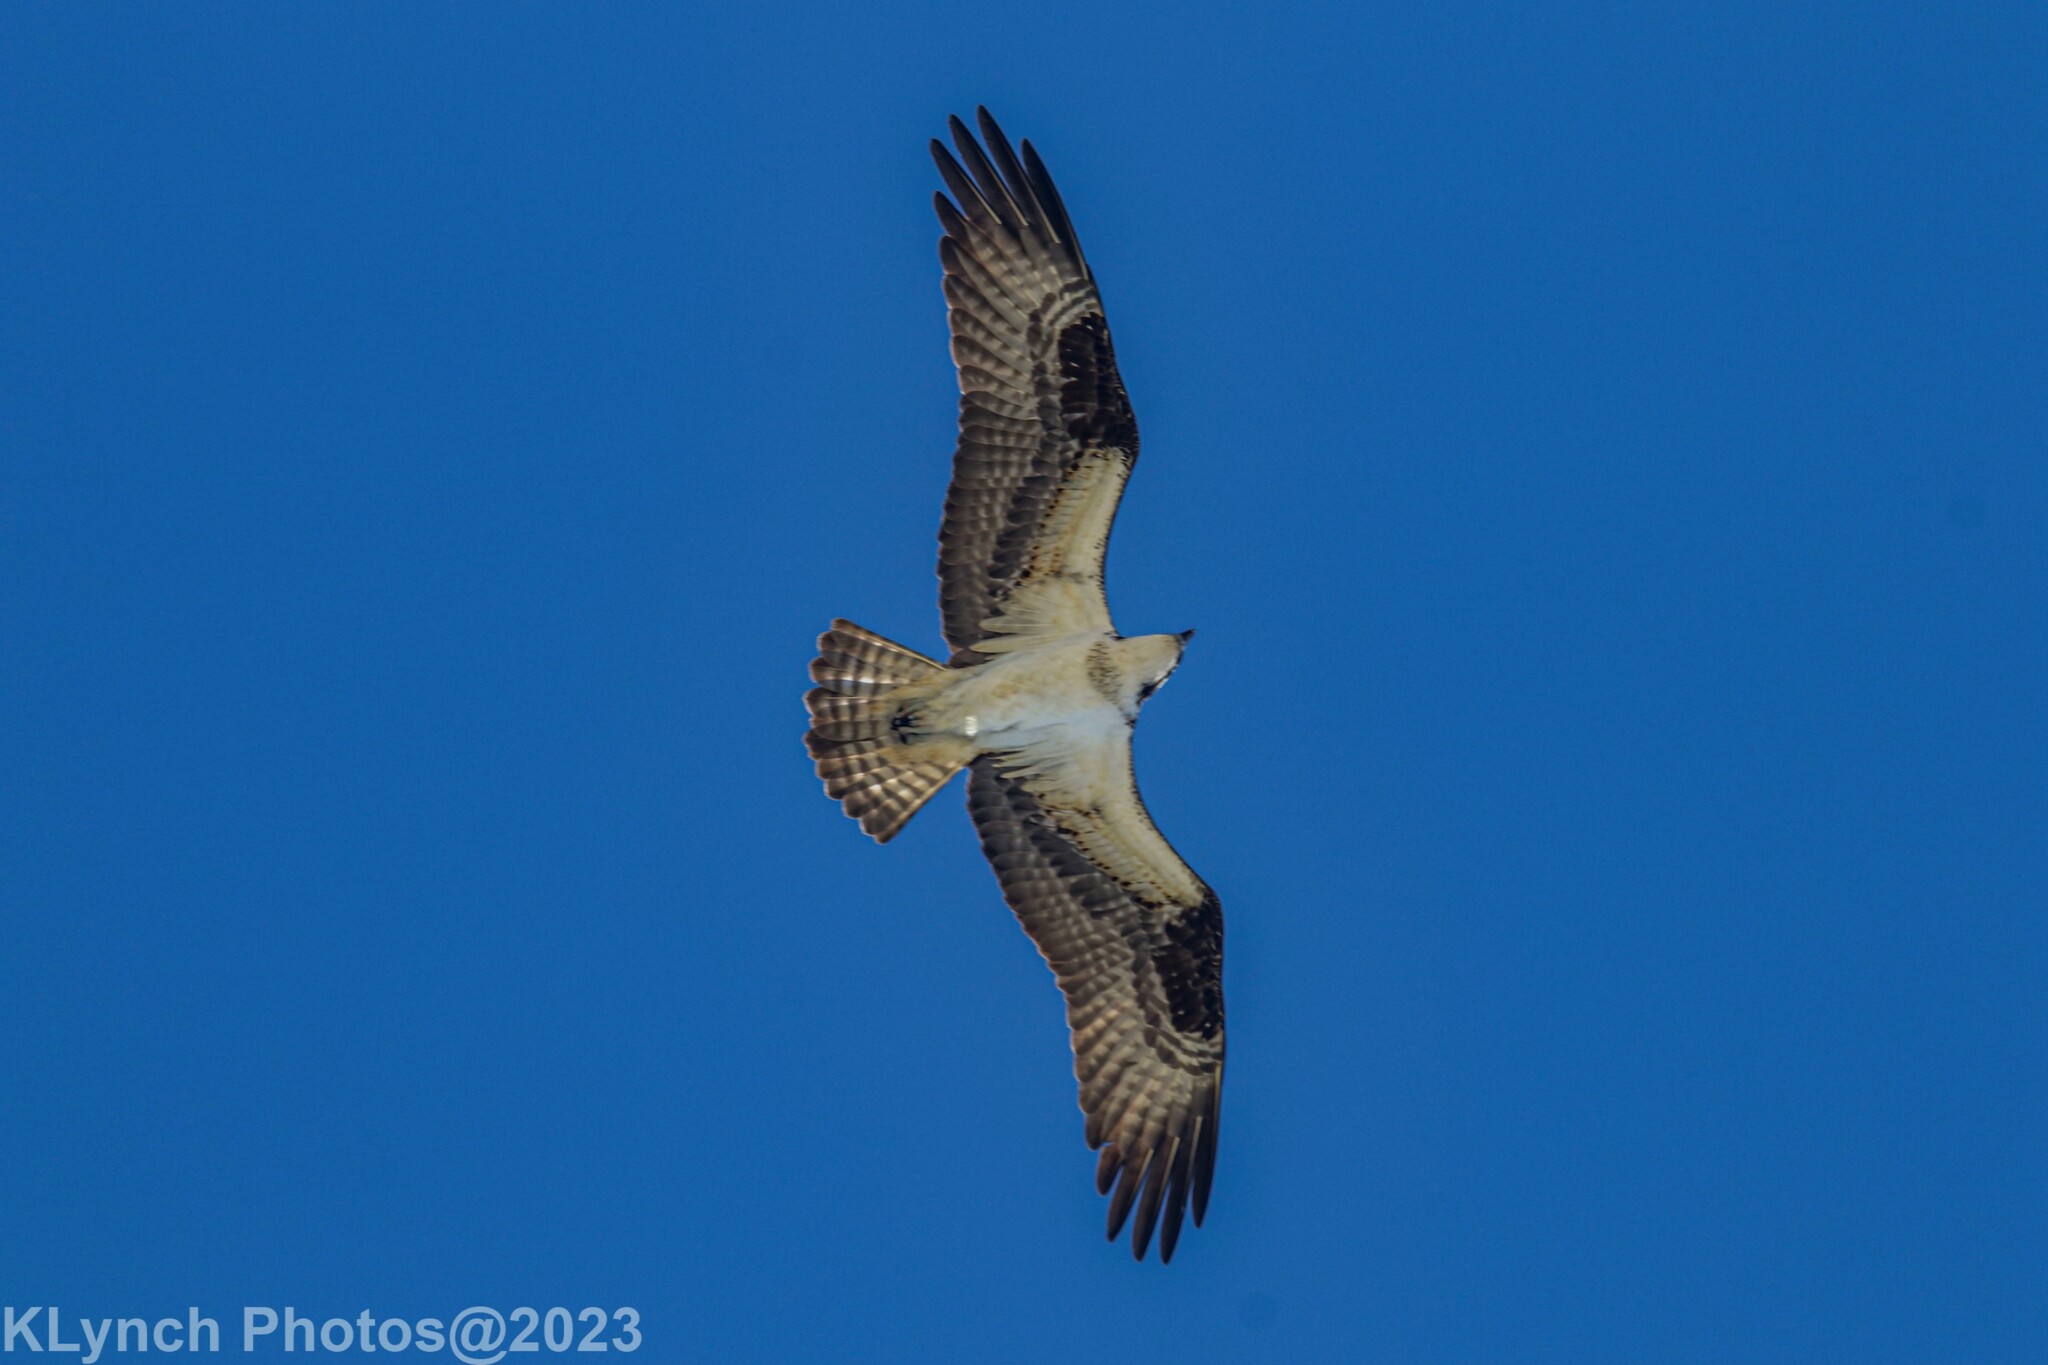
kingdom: Animalia
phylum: Chordata
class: Aves
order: Accipitriformes
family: Pandionidae
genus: Pandion
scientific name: Pandion haliaetus
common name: Osprey
